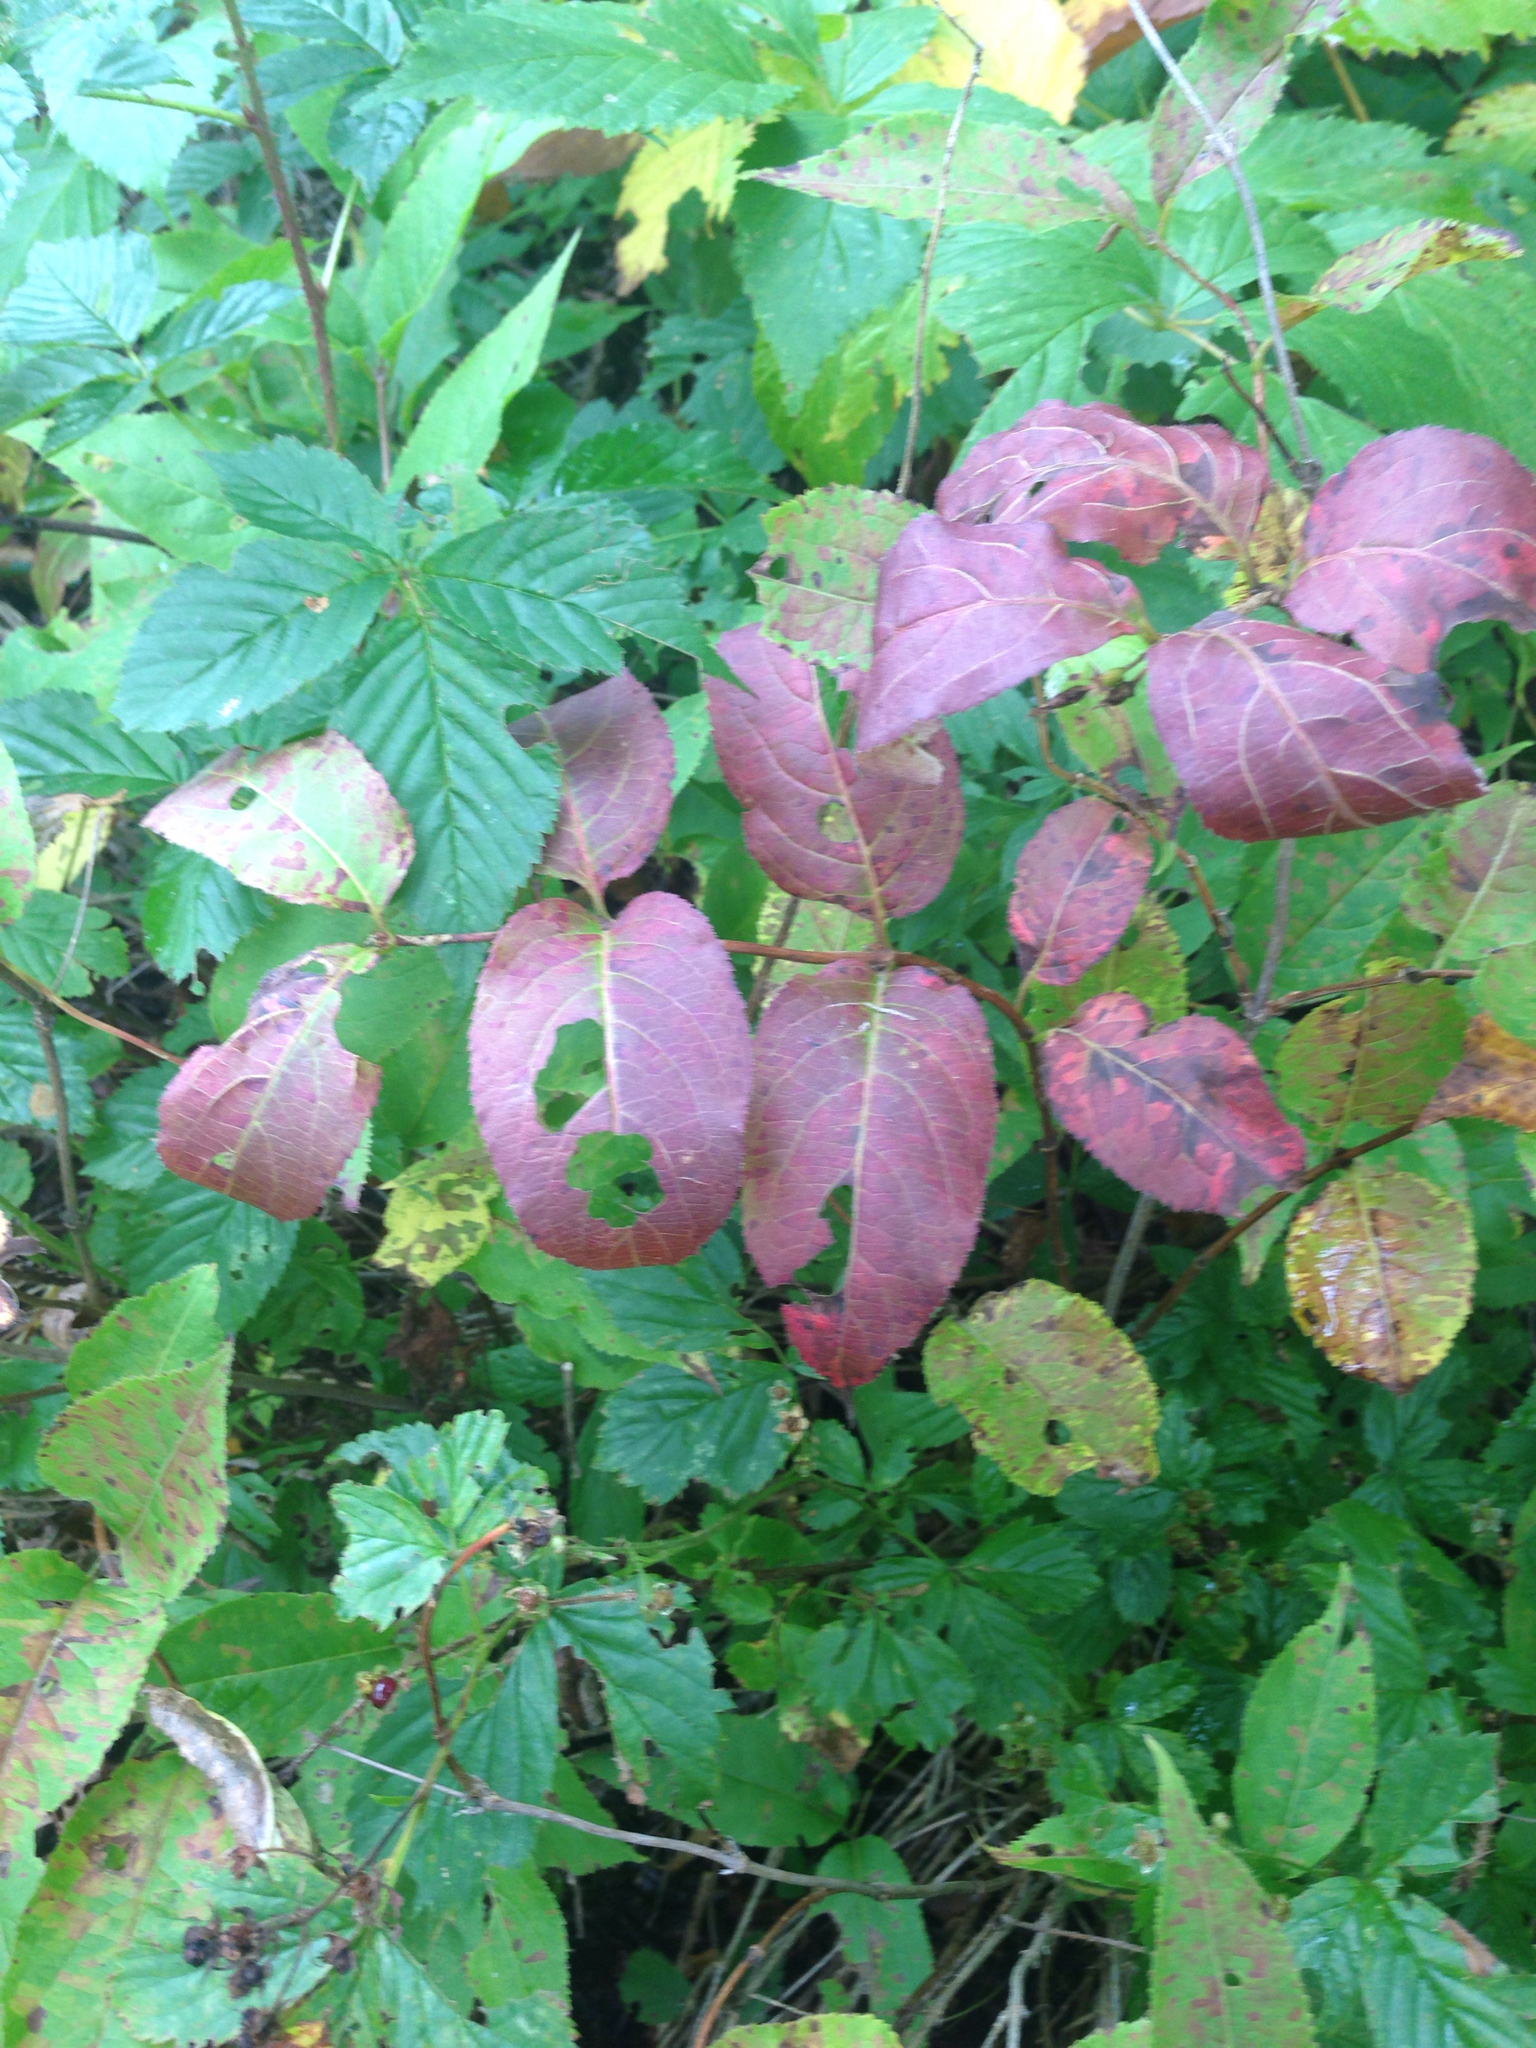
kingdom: Plantae
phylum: Tracheophyta
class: Magnoliopsida
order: Dipsacales
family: Viburnaceae
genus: Viburnum
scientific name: Viburnum cassinoides
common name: Swamp haw
